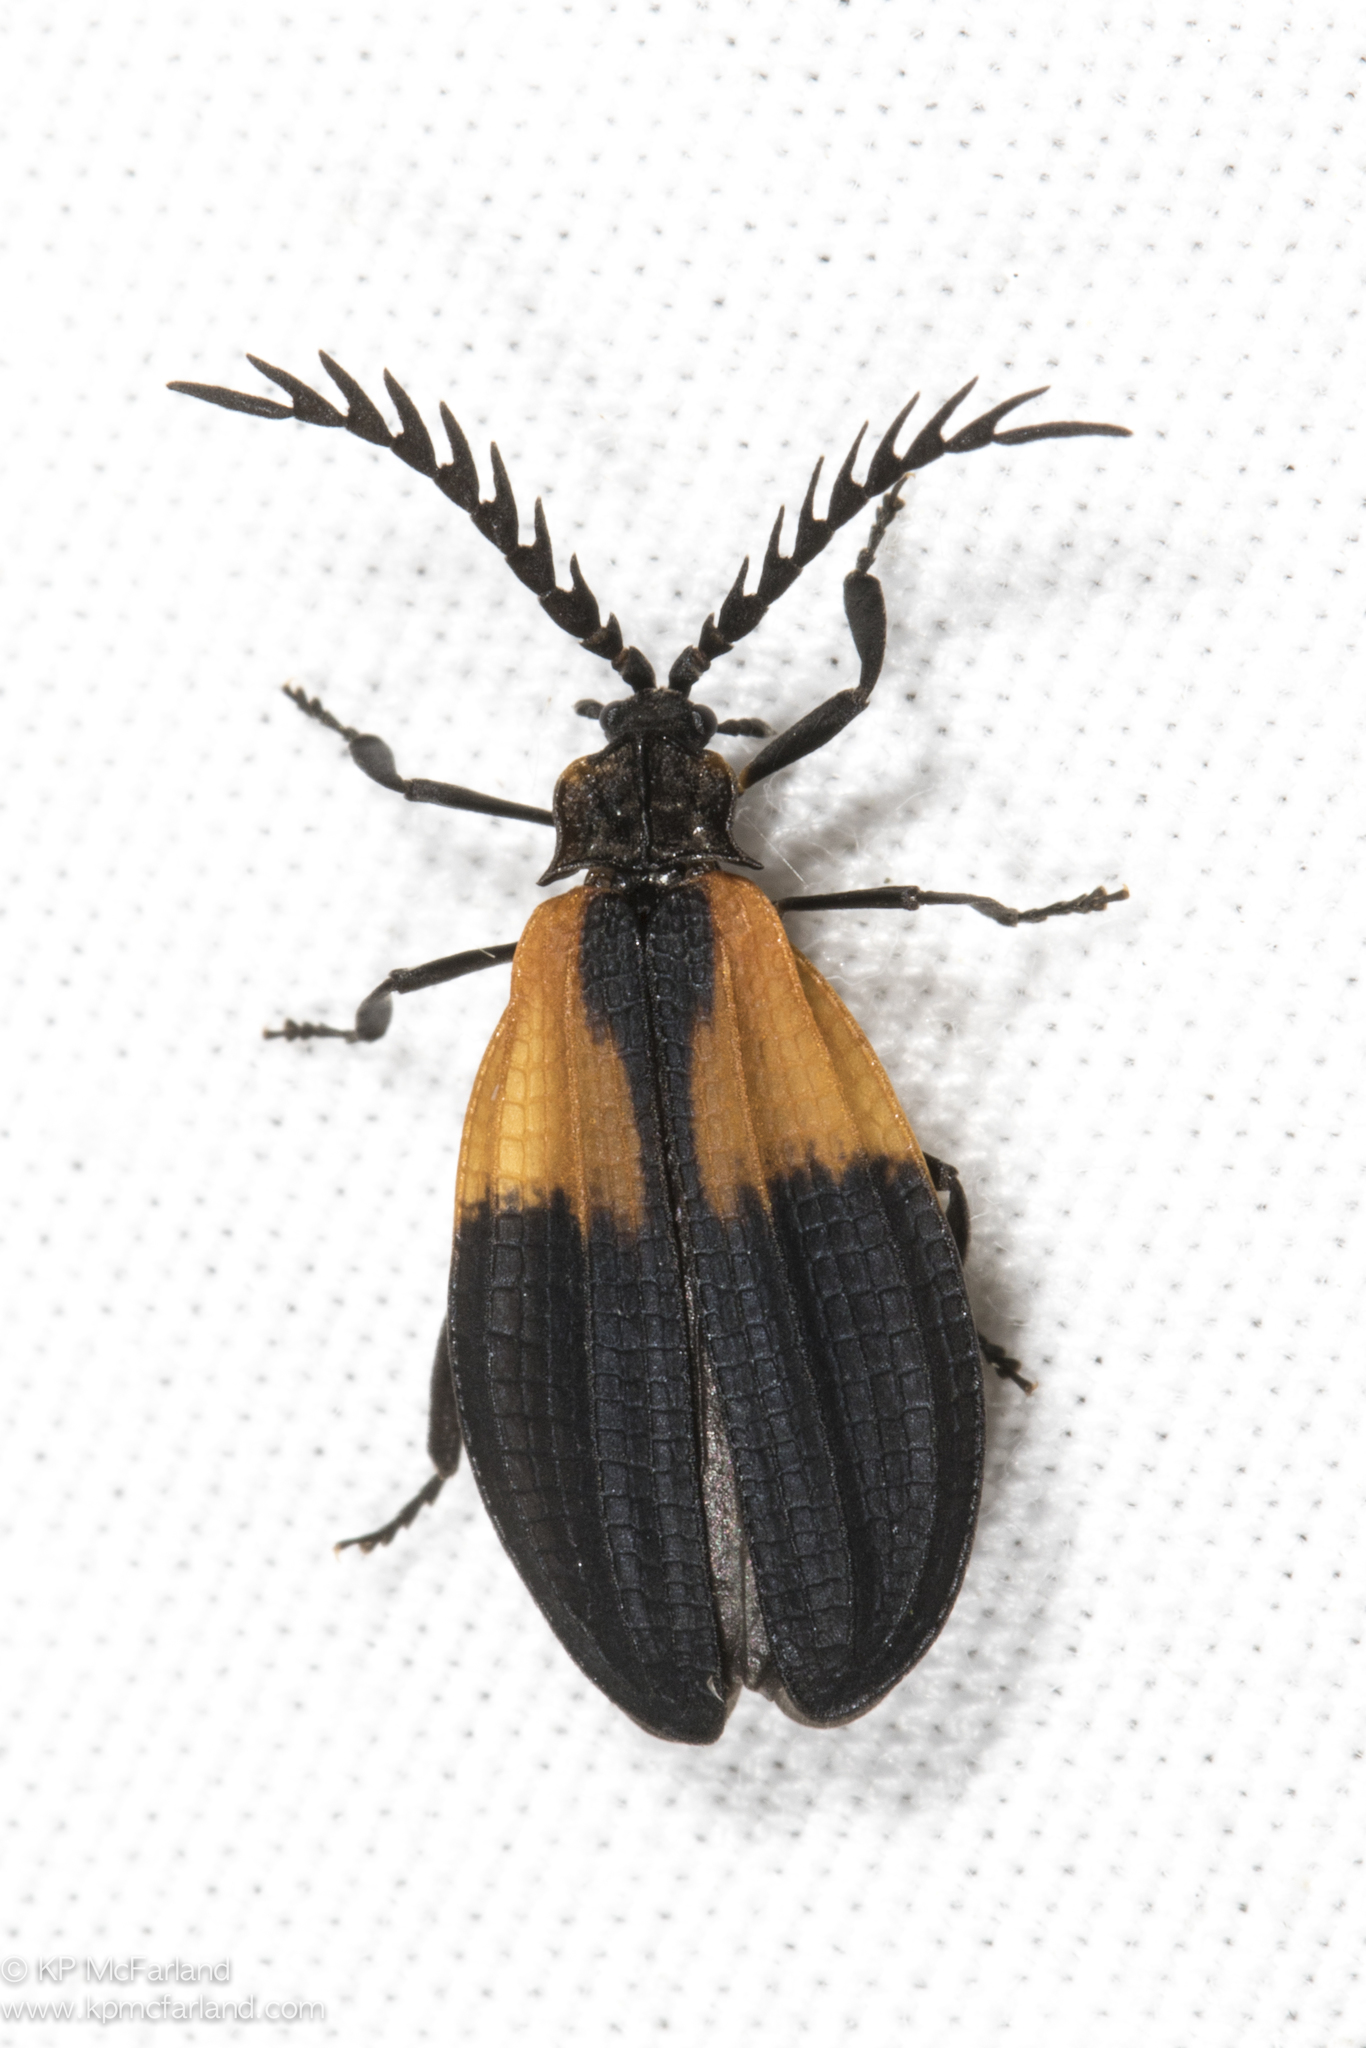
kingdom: Animalia
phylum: Arthropoda
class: Insecta
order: Coleoptera
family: Lycidae
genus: Caenia
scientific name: Caenia dimidiata
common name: Terminal net-winged beetle
